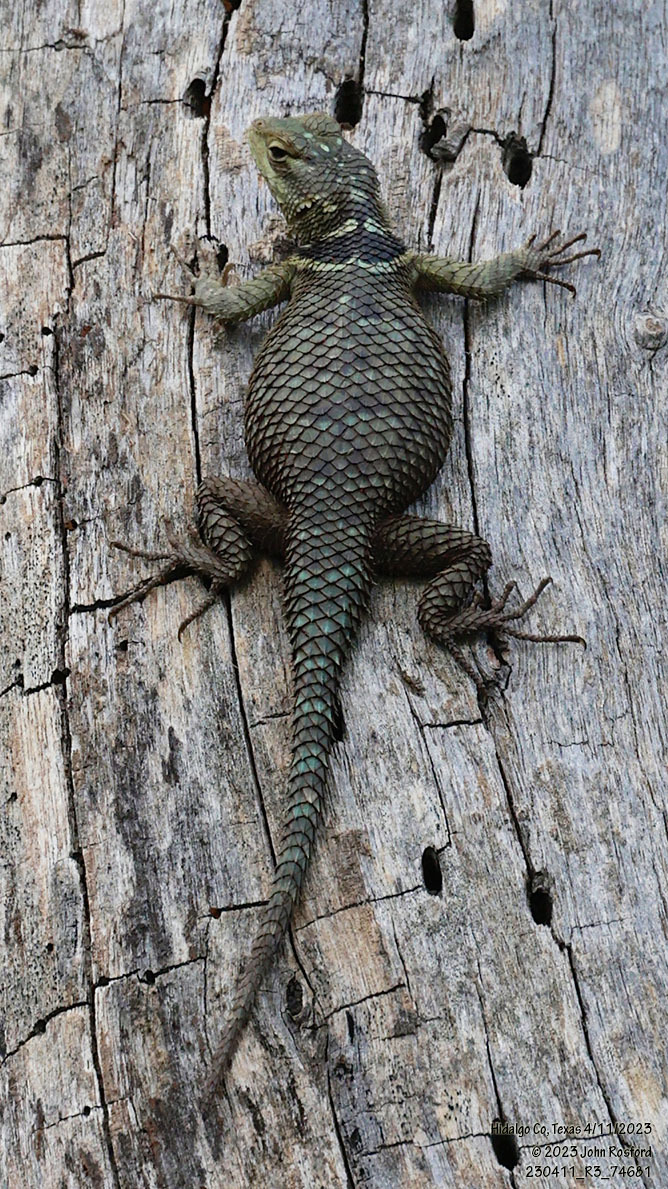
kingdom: Animalia
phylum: Chordata
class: Squamata
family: Phrynosomatidae
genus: Sceloporus
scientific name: Sceloporus cyanogenys
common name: Blue spiny lizard
